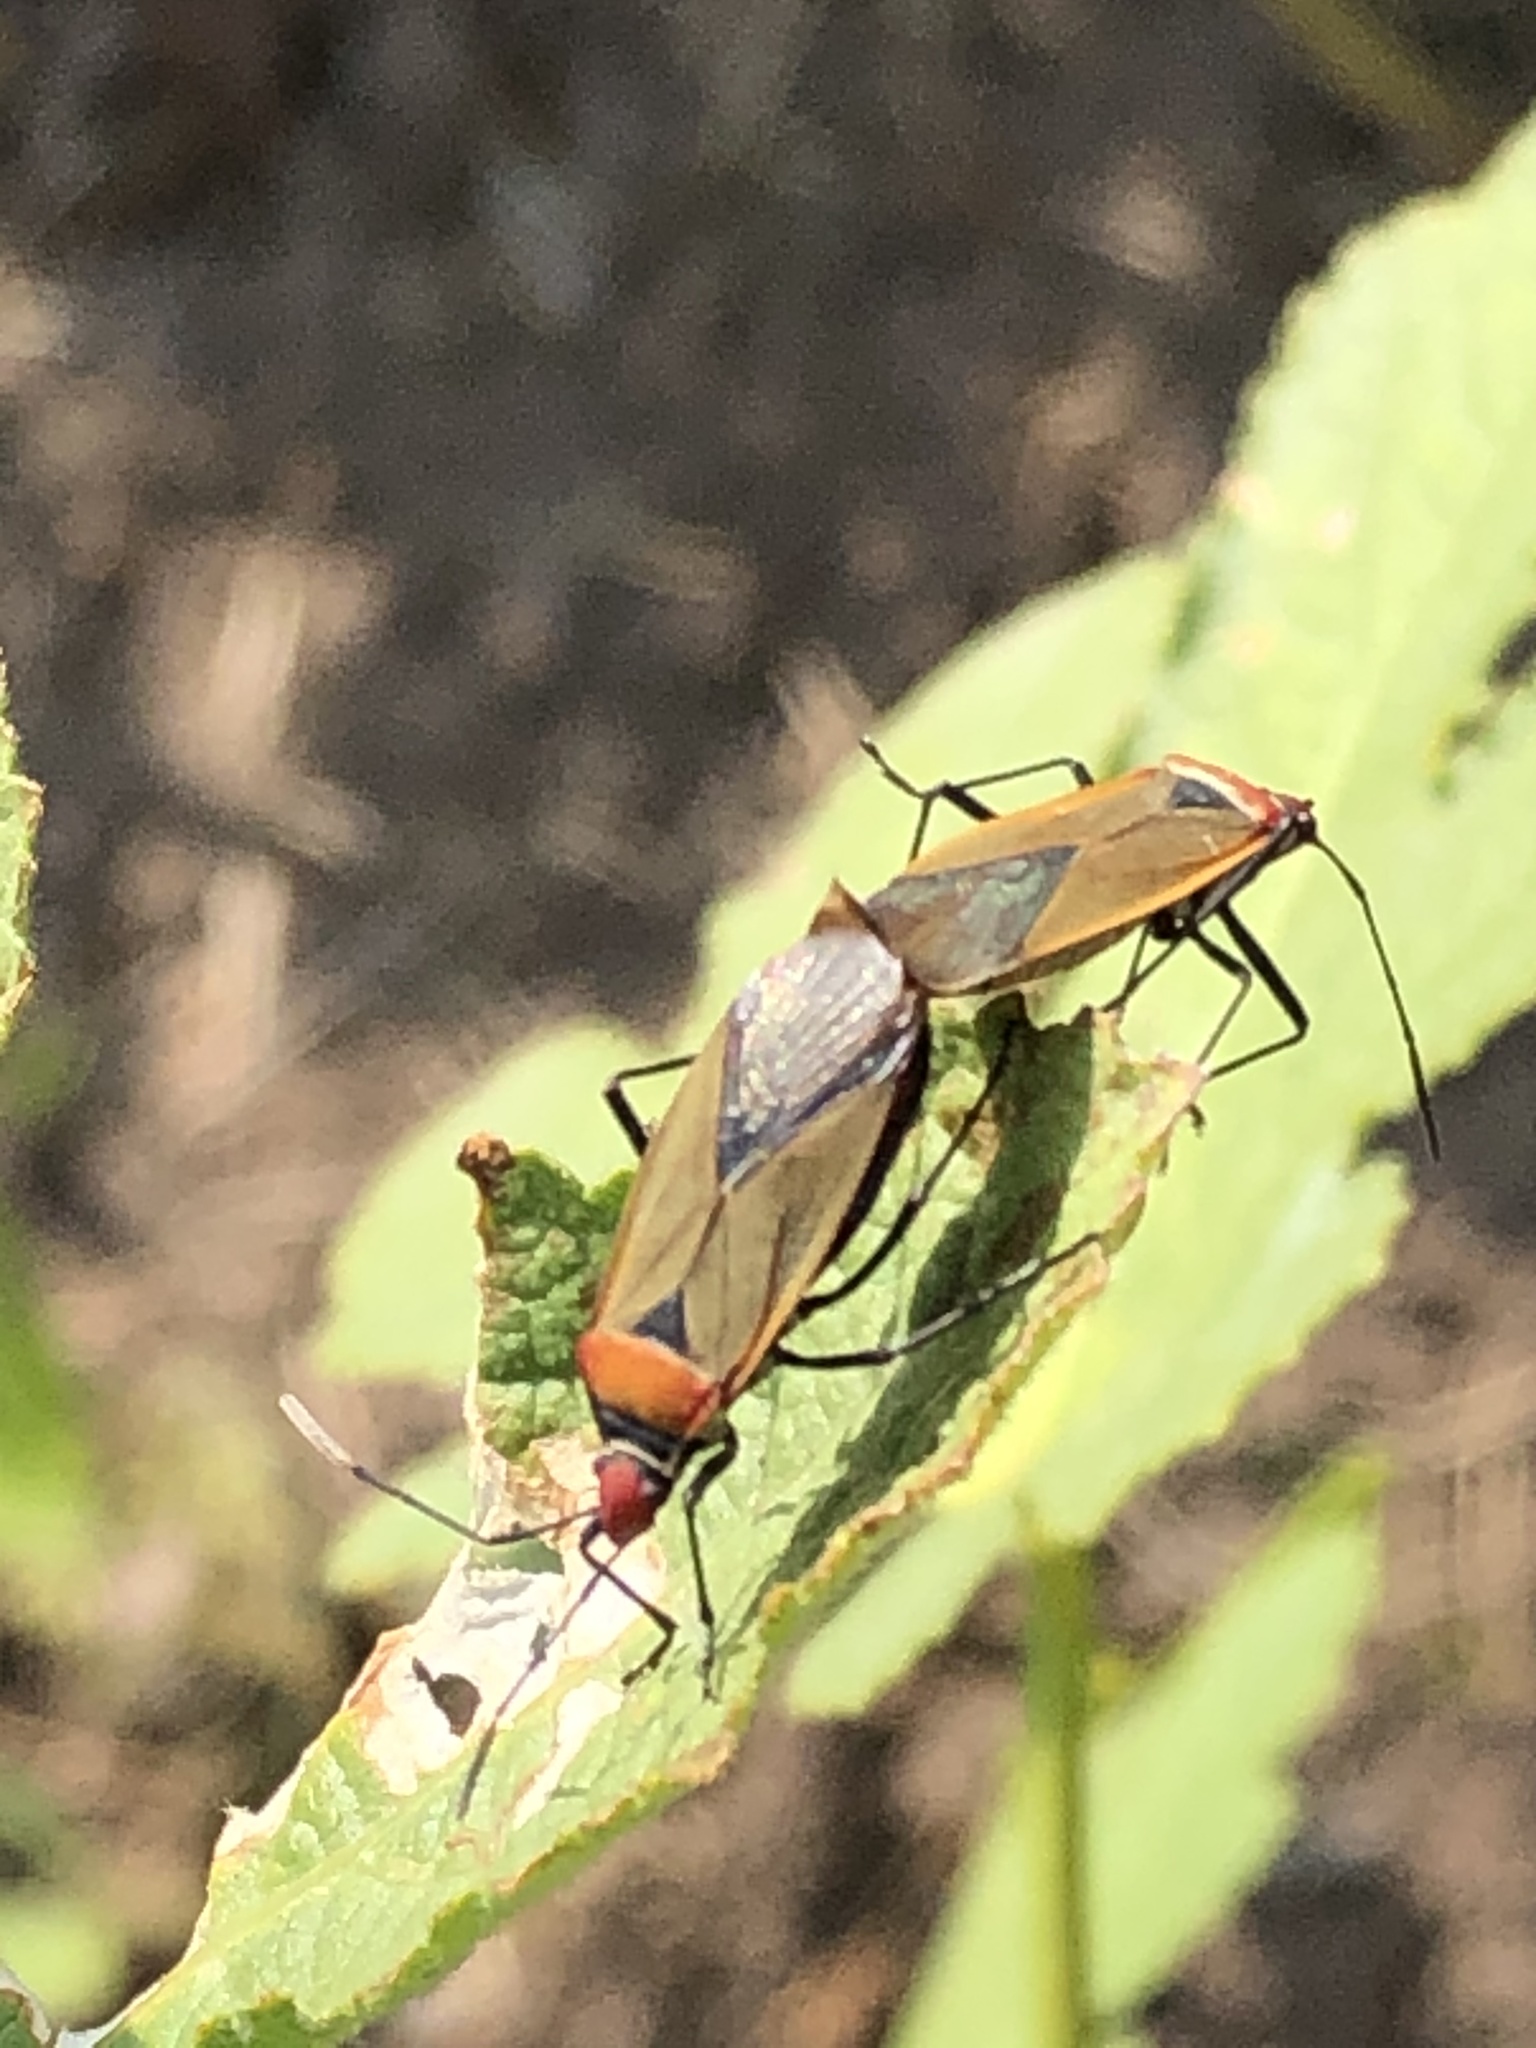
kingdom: Animalia
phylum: Arthropoda
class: Insecta
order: Hemiptera
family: Pyrrhocoridae
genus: Dysdercus
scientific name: Dysdercus peruvianus
